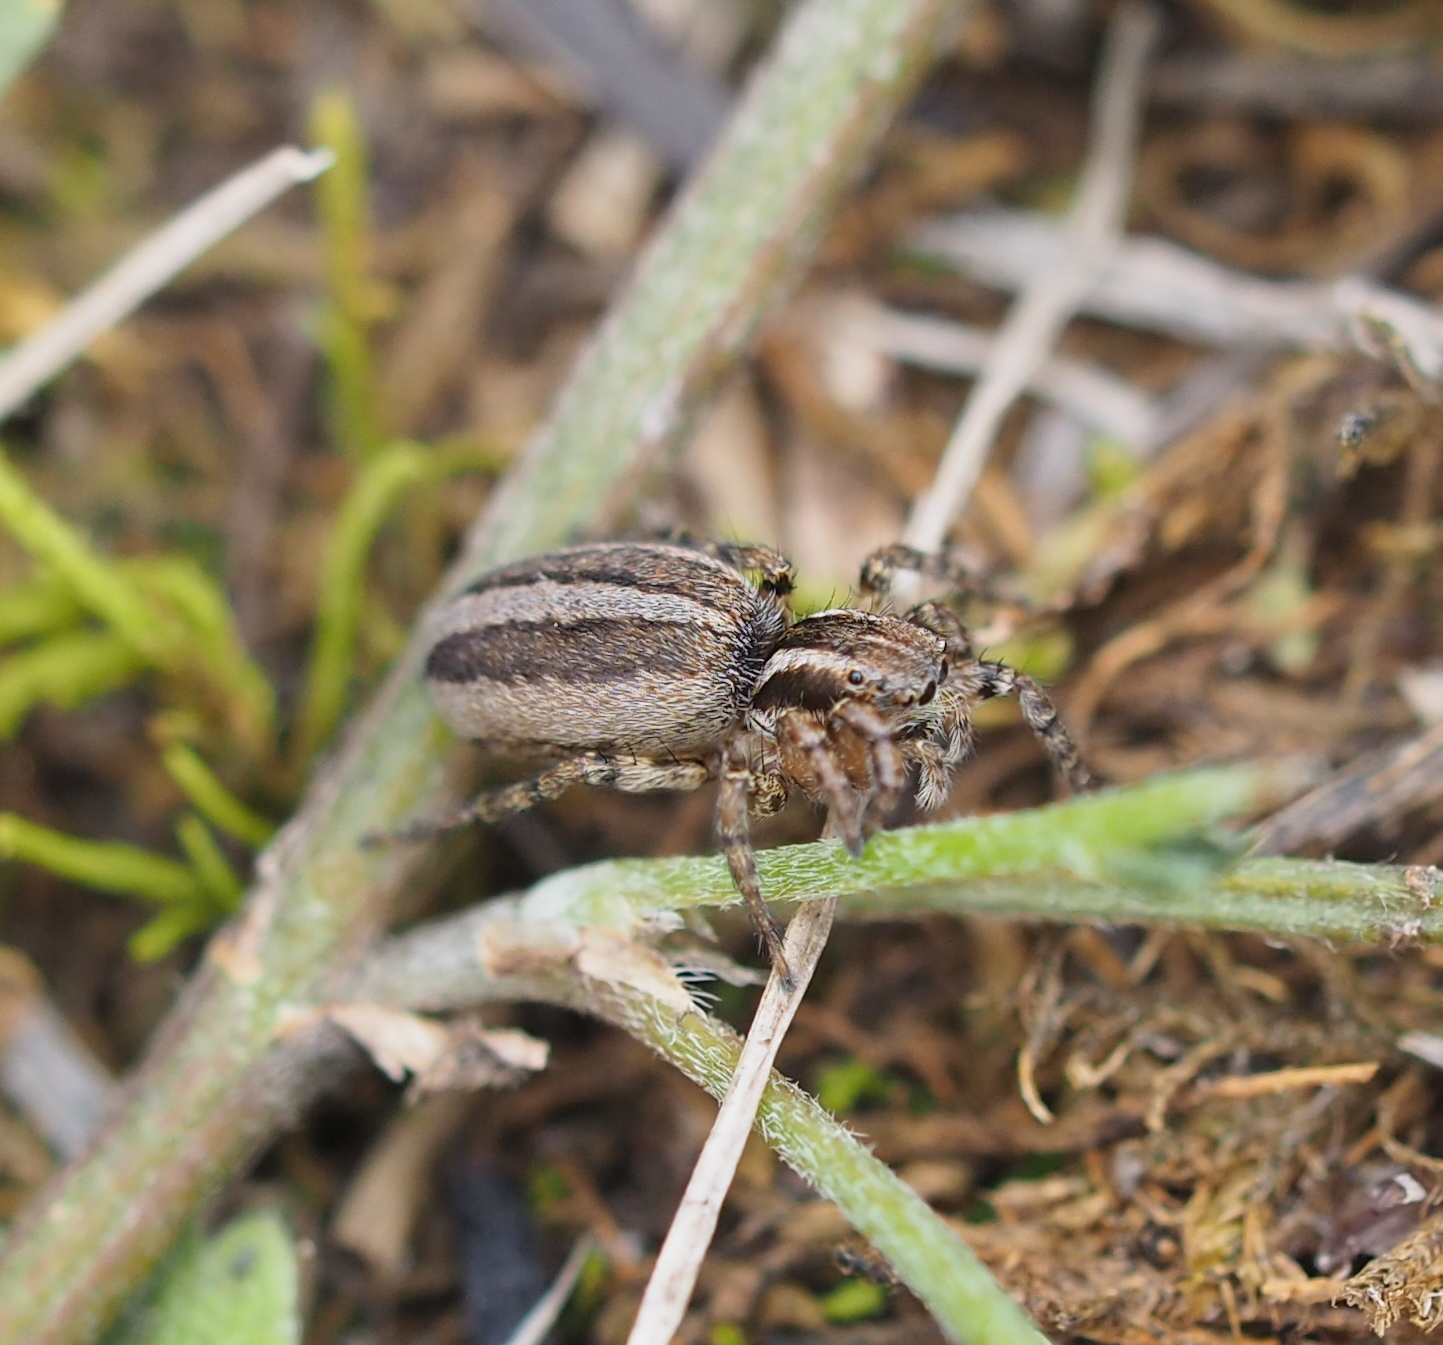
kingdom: Animalia
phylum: Arthropoda
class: Arachnida
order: Araneae
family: Salticidae
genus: Phlegra
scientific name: Phlegra fasciata
